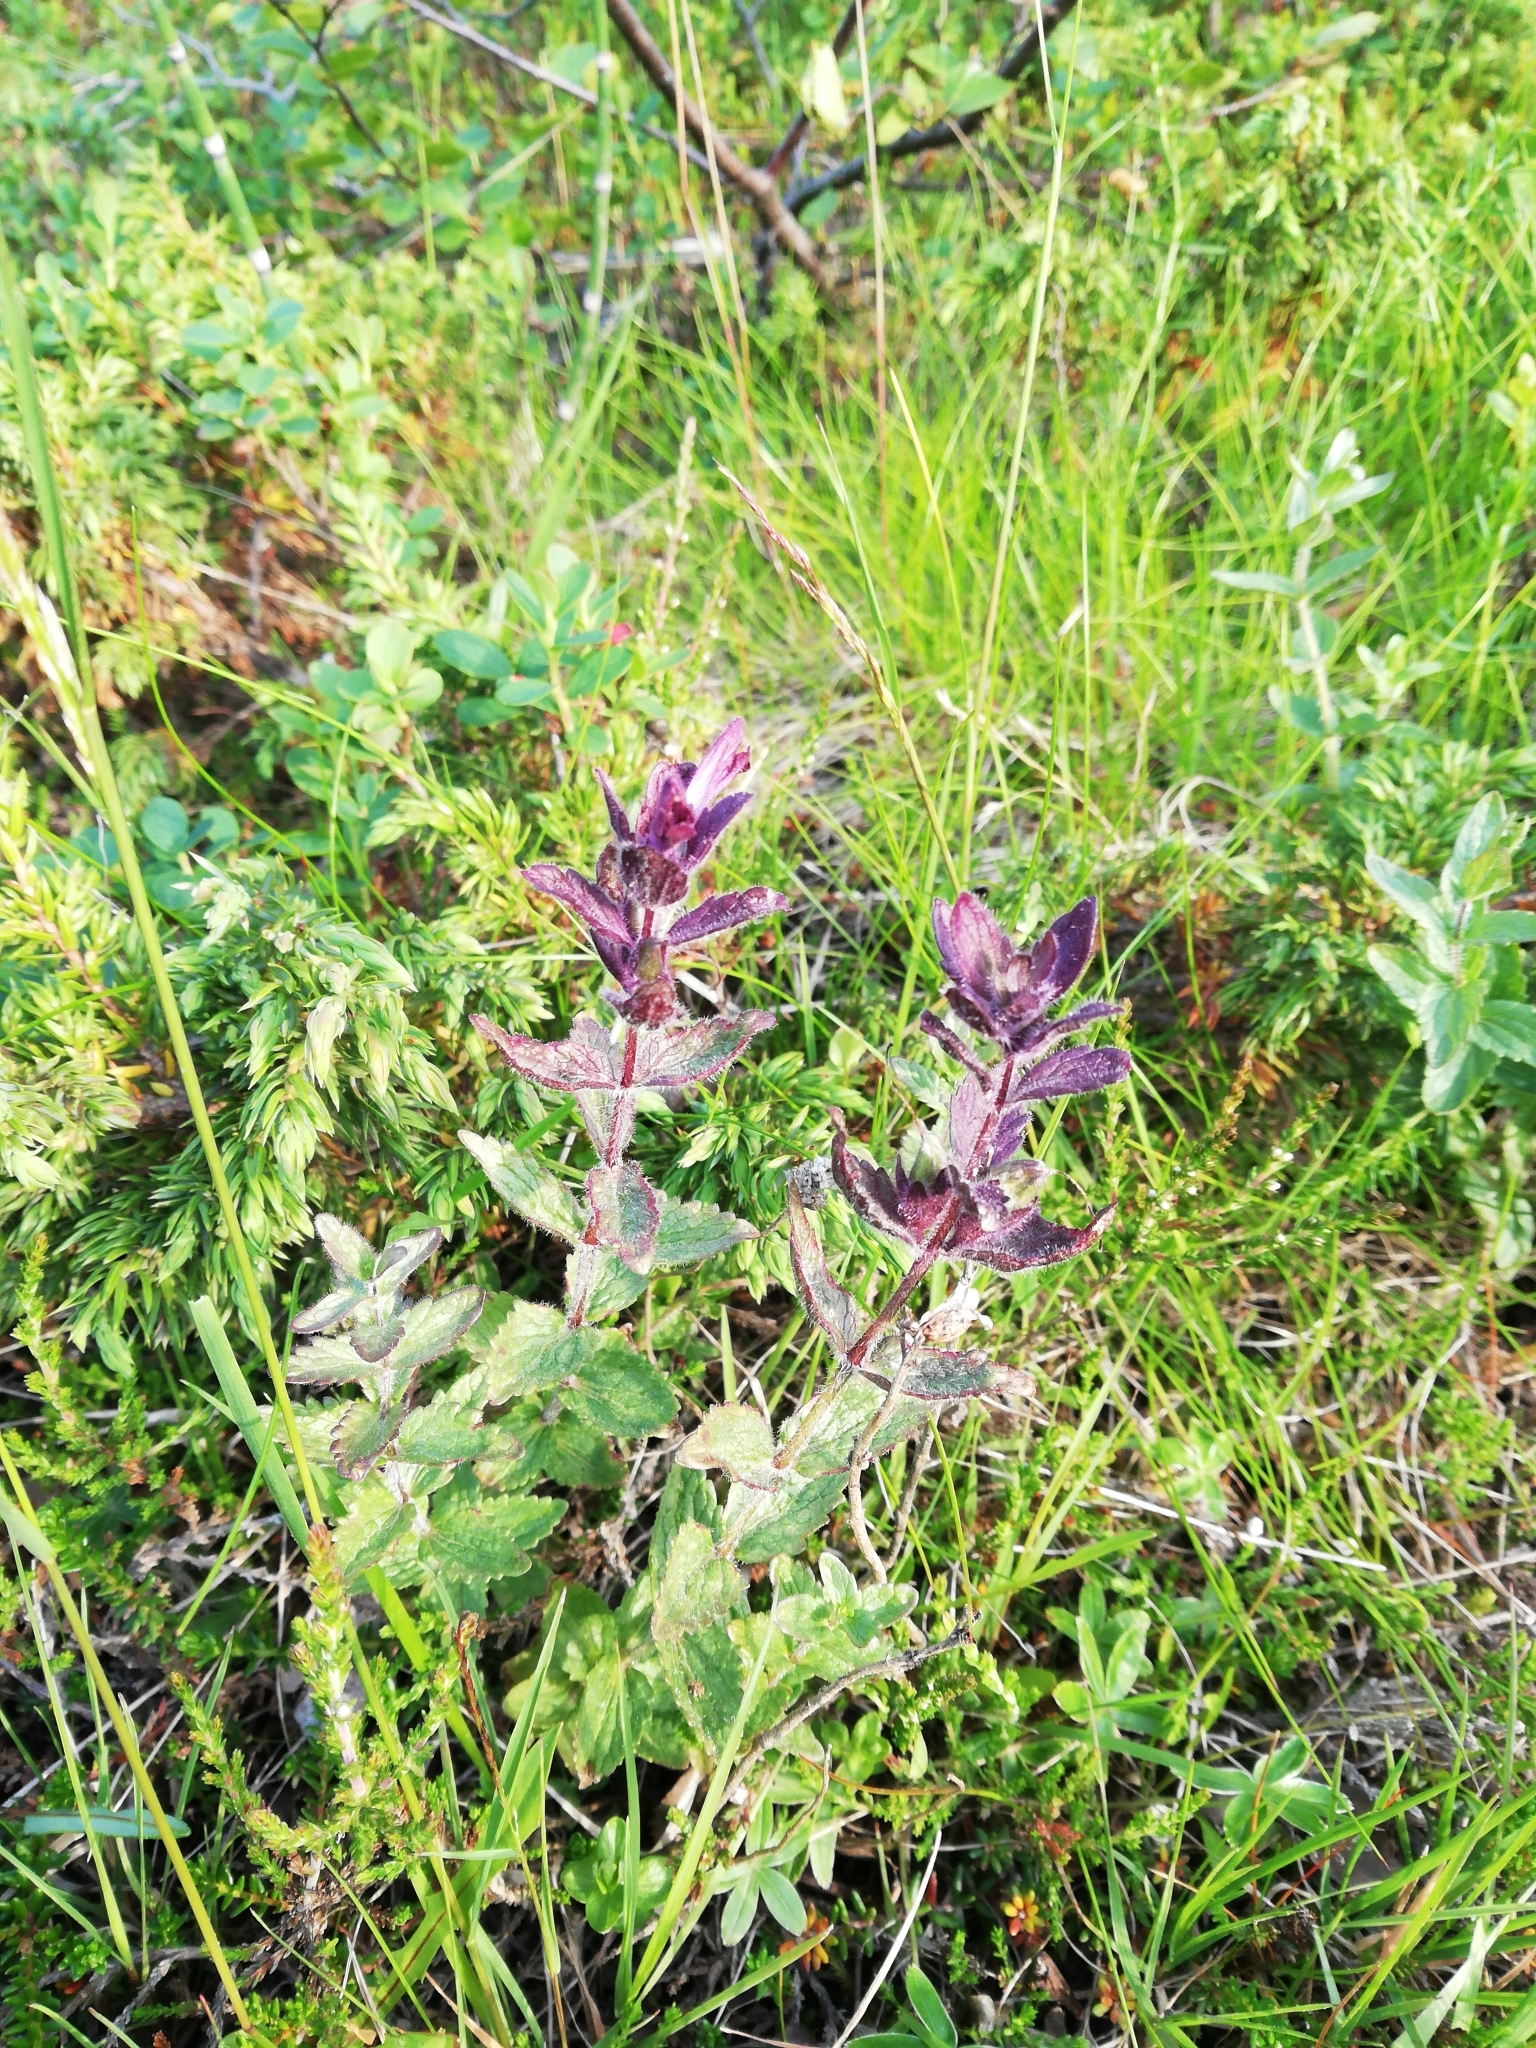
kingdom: Plantae
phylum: Tracheophyta
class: Magnoliopsida
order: Lamiales
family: Orobanchaceae
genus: Bartsia
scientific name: Bartsia alpina
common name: Alpine bartsia
